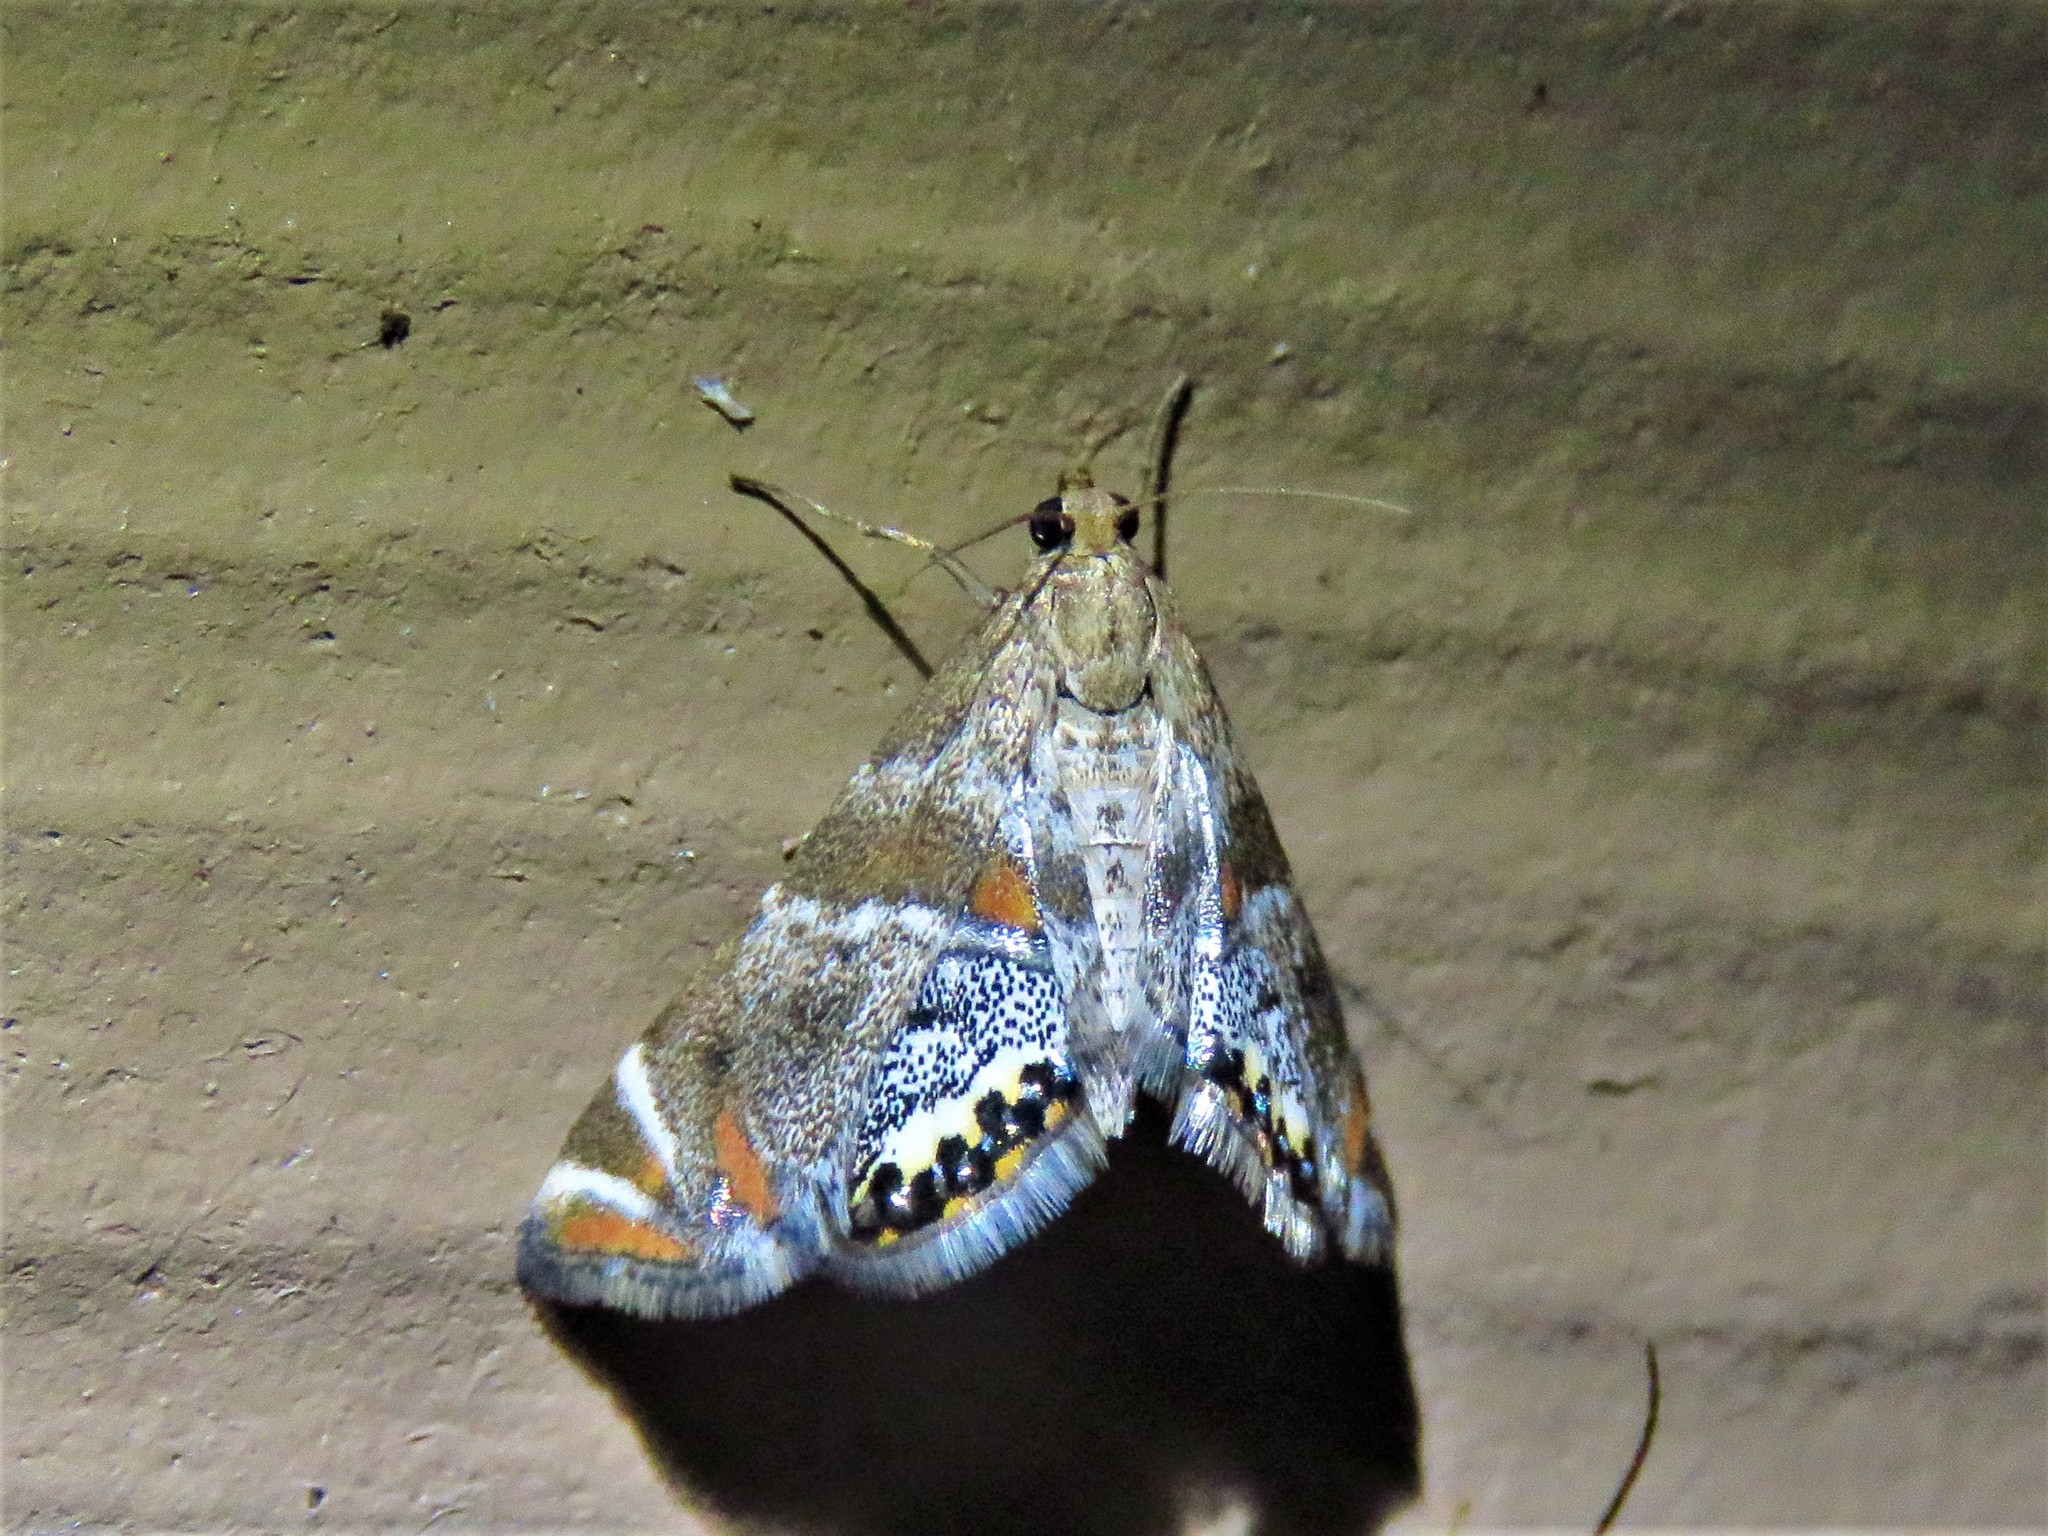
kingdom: Animalia
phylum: Arthropoda
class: Insecta
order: Lepidoptera
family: Crambidae
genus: Petrophila
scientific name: Petrophila jaliscalis
